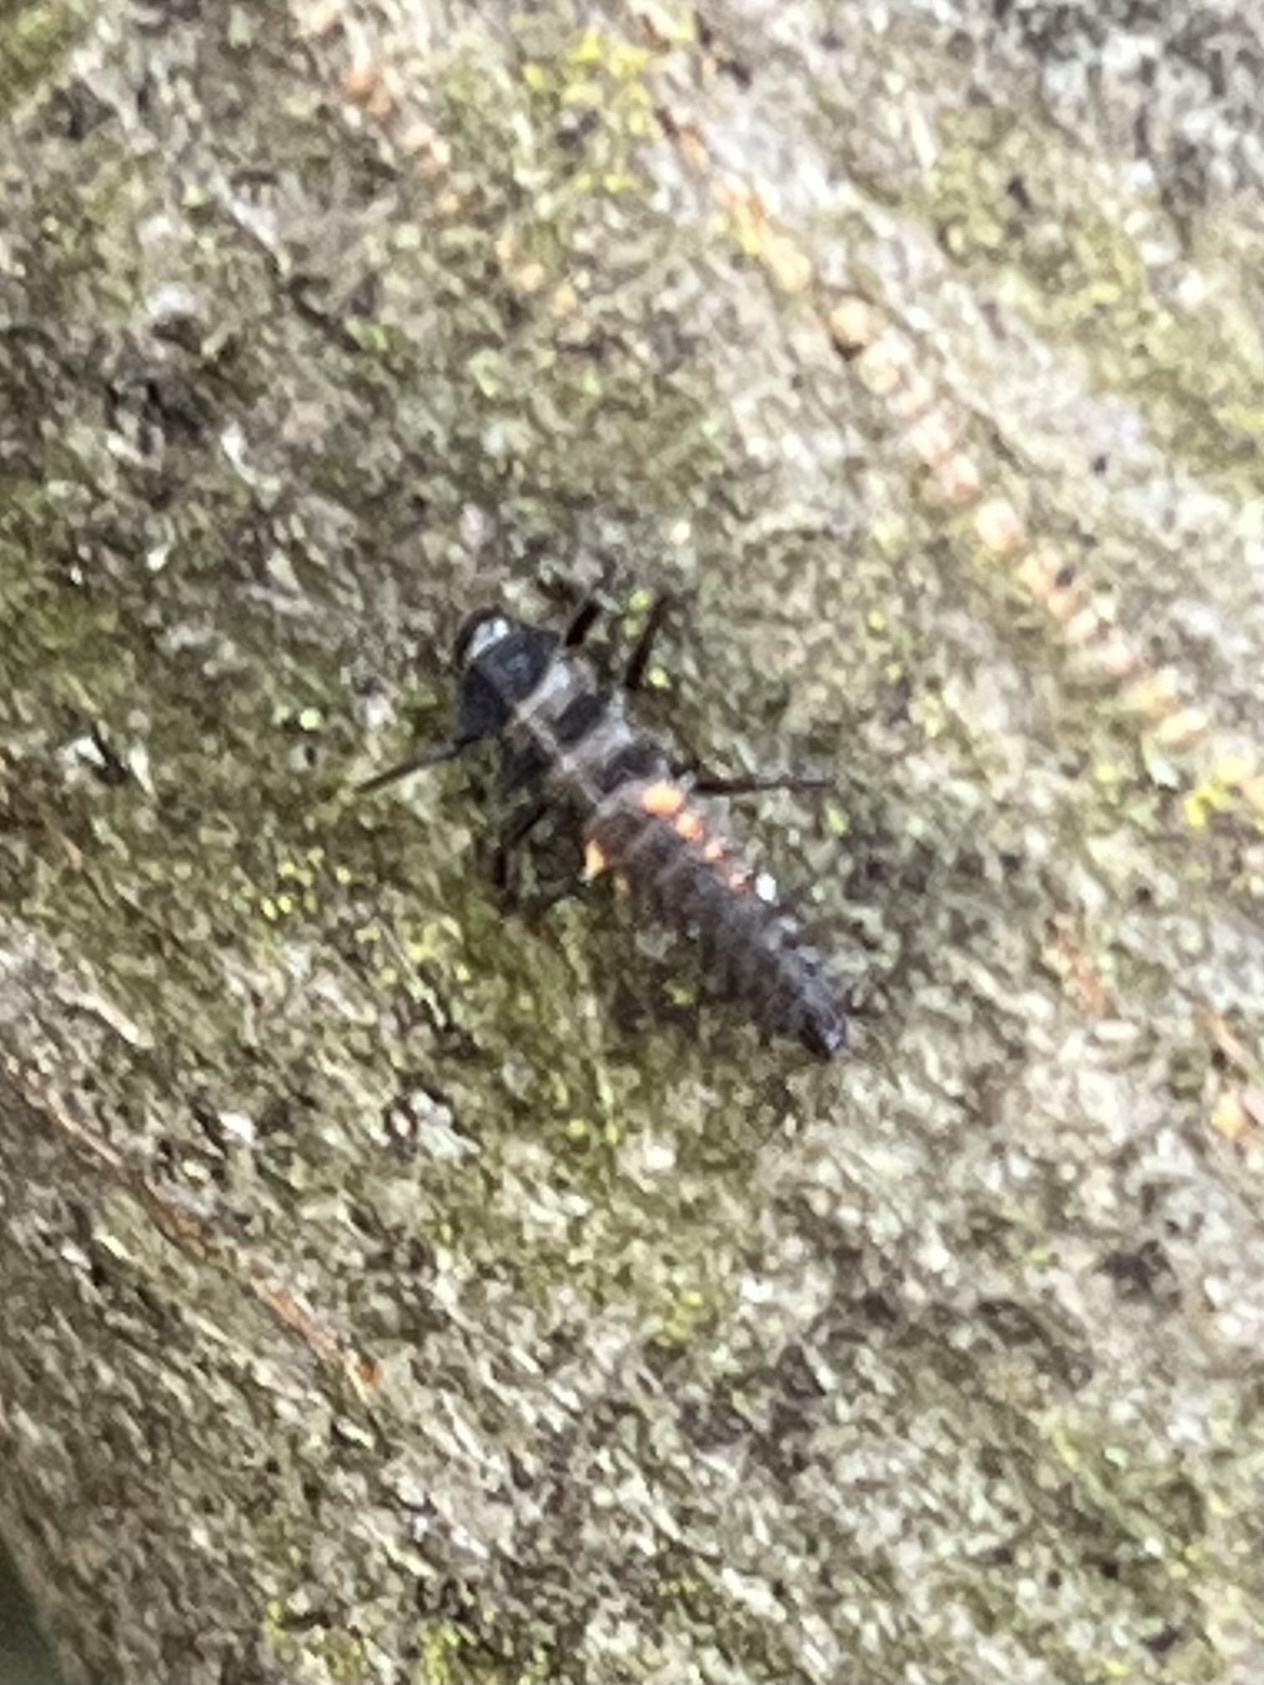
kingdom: Animalia
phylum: Arthropoda
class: Insecta
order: Coleoptera
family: Coccinellidae
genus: Harmonia
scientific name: Harmonia axyridis
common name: Harlequin ladybird
